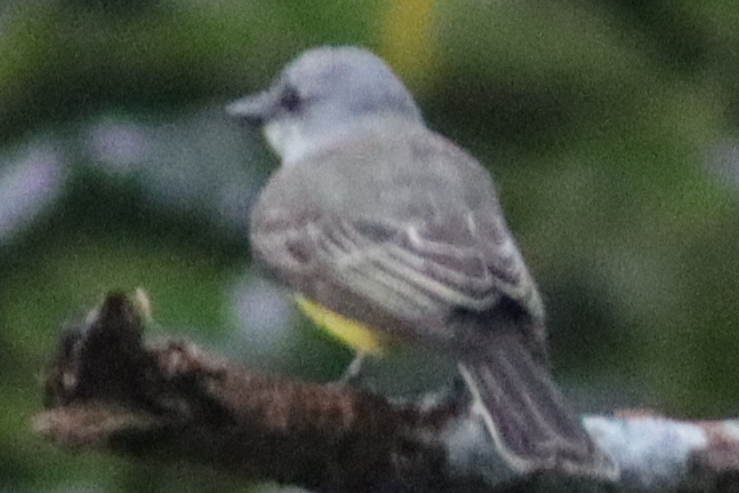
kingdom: Animalia
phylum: Chordata
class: Aves
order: Passeriformes
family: Tyrannidae
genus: Tyrannus
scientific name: Tyrannus melancholicus
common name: Tropical kingbird
